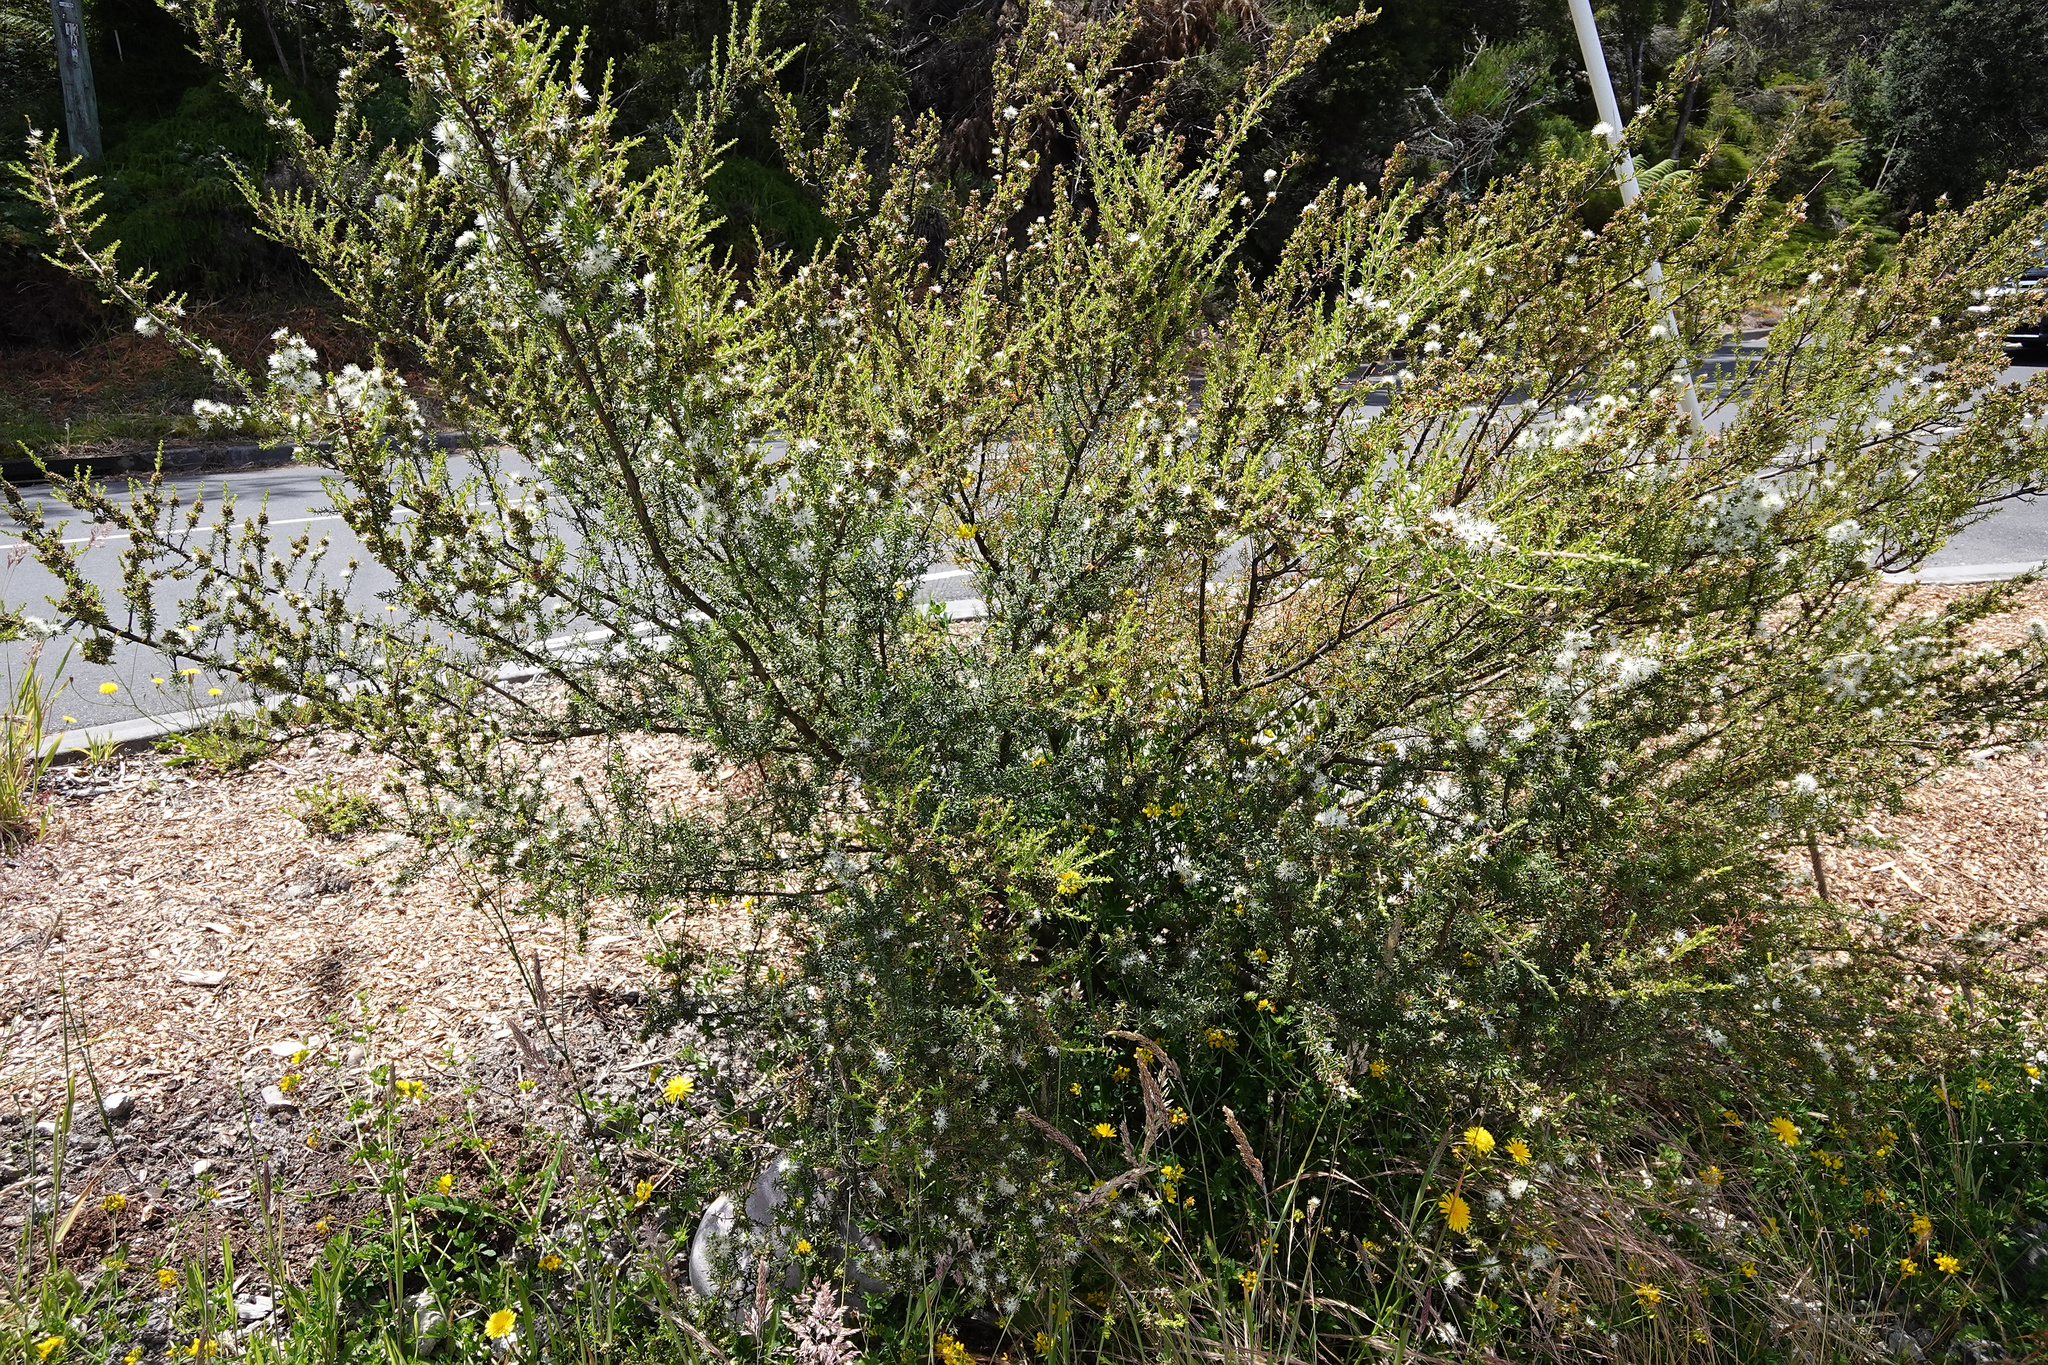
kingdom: Plantae
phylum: Tracheophyta
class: Magnoliopsida
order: Myrtales
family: Myrtaceae
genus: Kunzea
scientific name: Kunzea ambigua
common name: Tickbush
